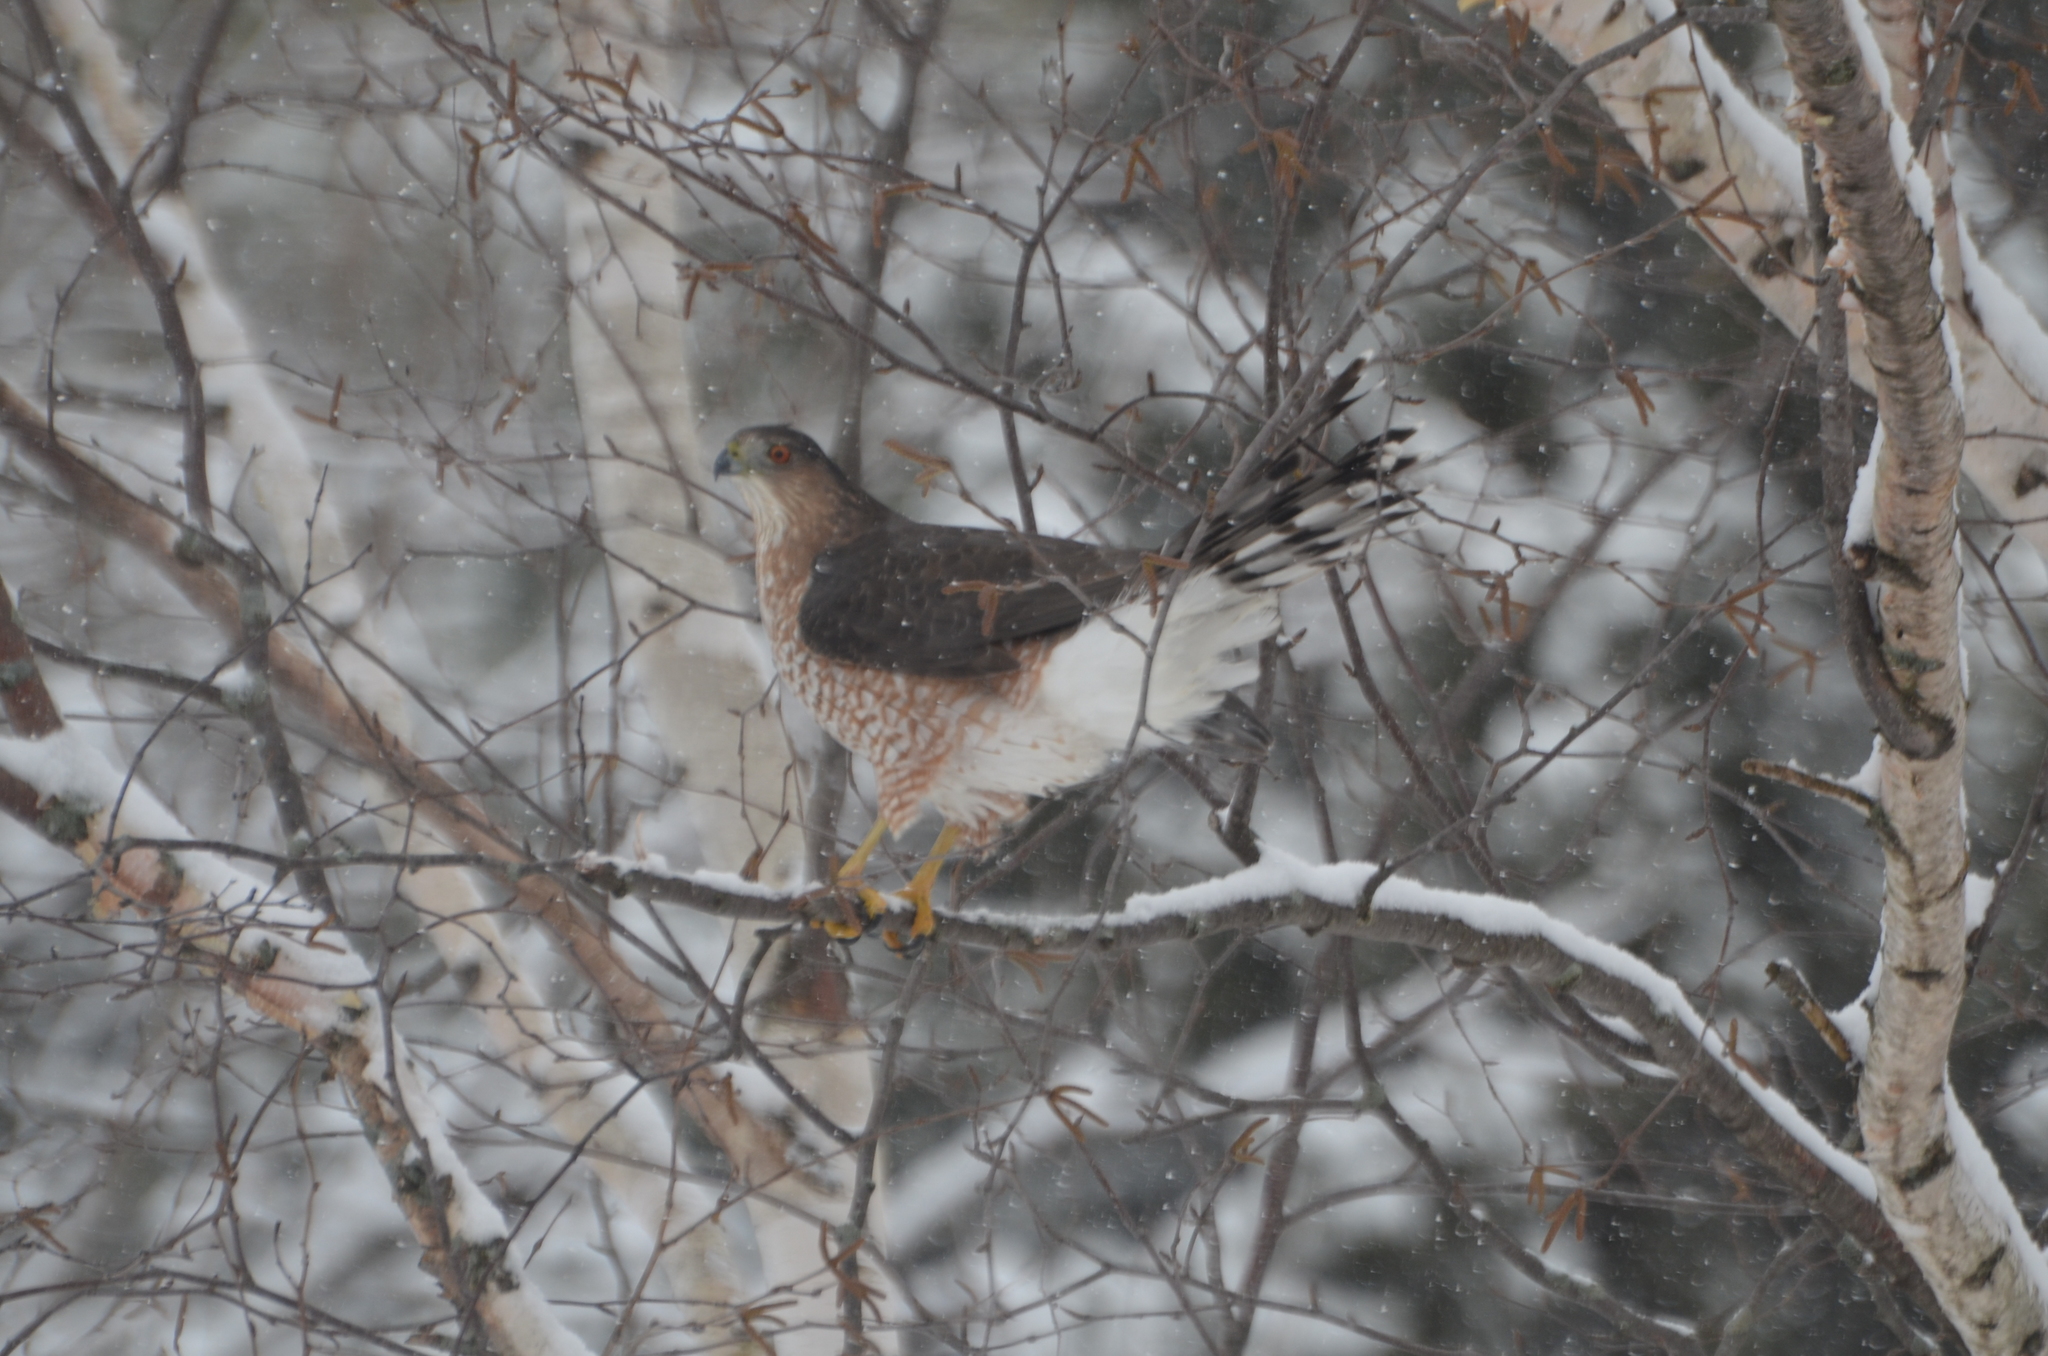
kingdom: Animalia
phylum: Chordata
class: Aves
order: Accipitriformes
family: Accipitridae
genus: Accipiter
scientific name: Accipiter striatus
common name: Sharp-shinned hawk
